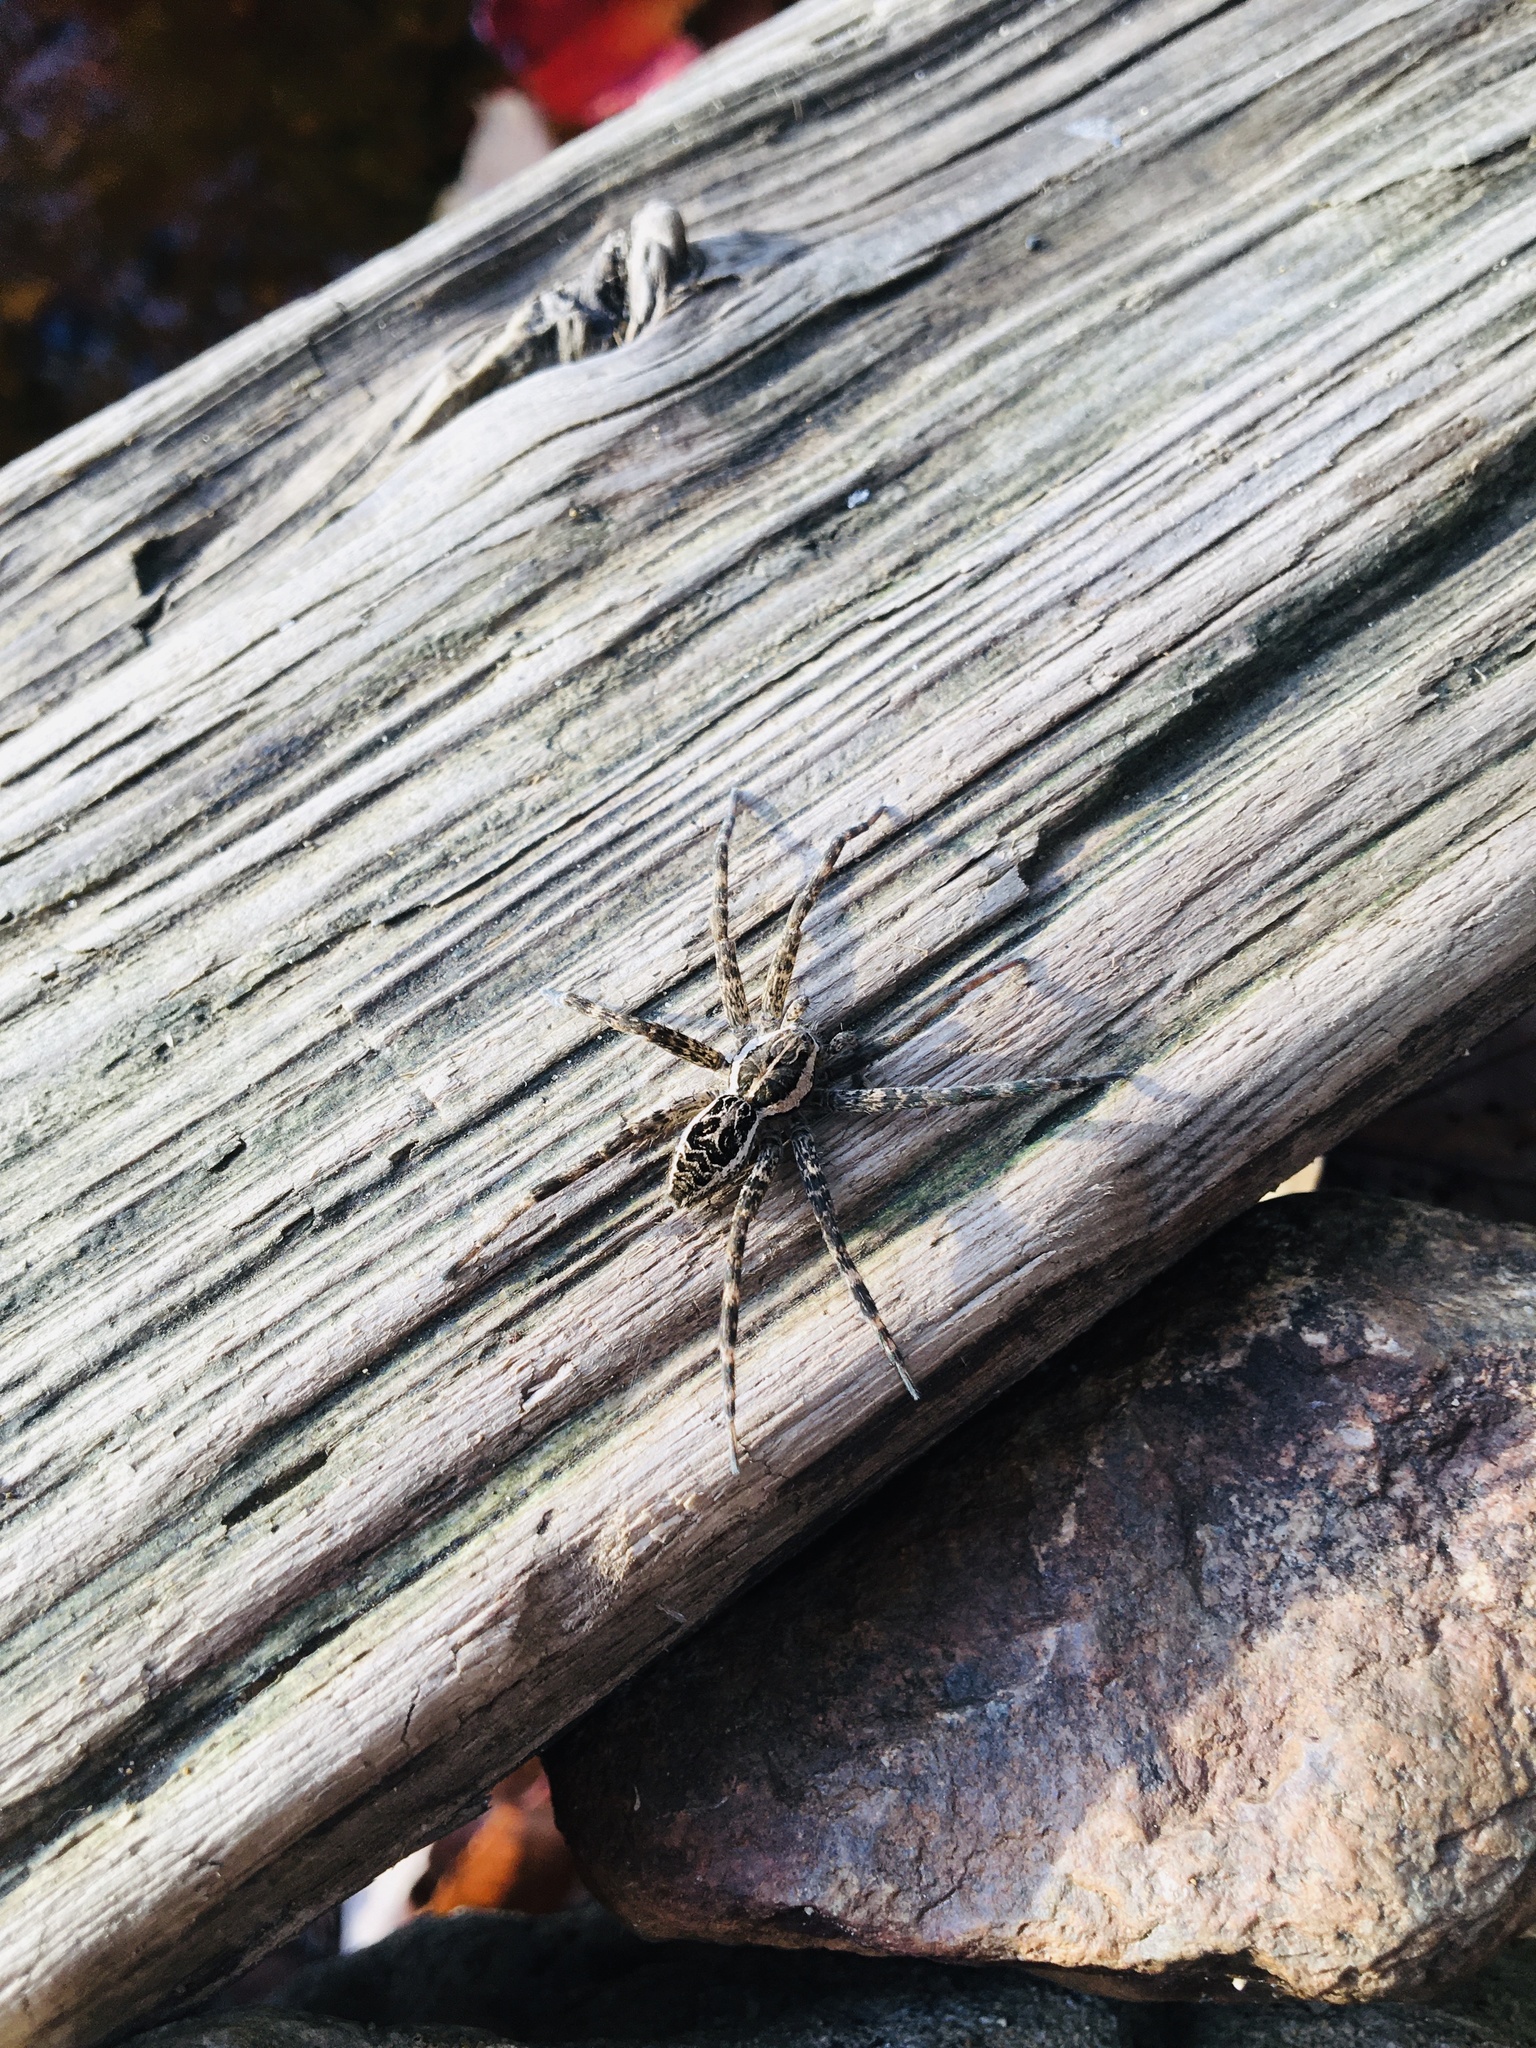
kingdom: Animalia
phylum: Arthropoda
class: Arachnida
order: Araneae
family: Pisauridae
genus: Dolomedes
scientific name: Dolomedes scriptus
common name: Striped fishing spider
